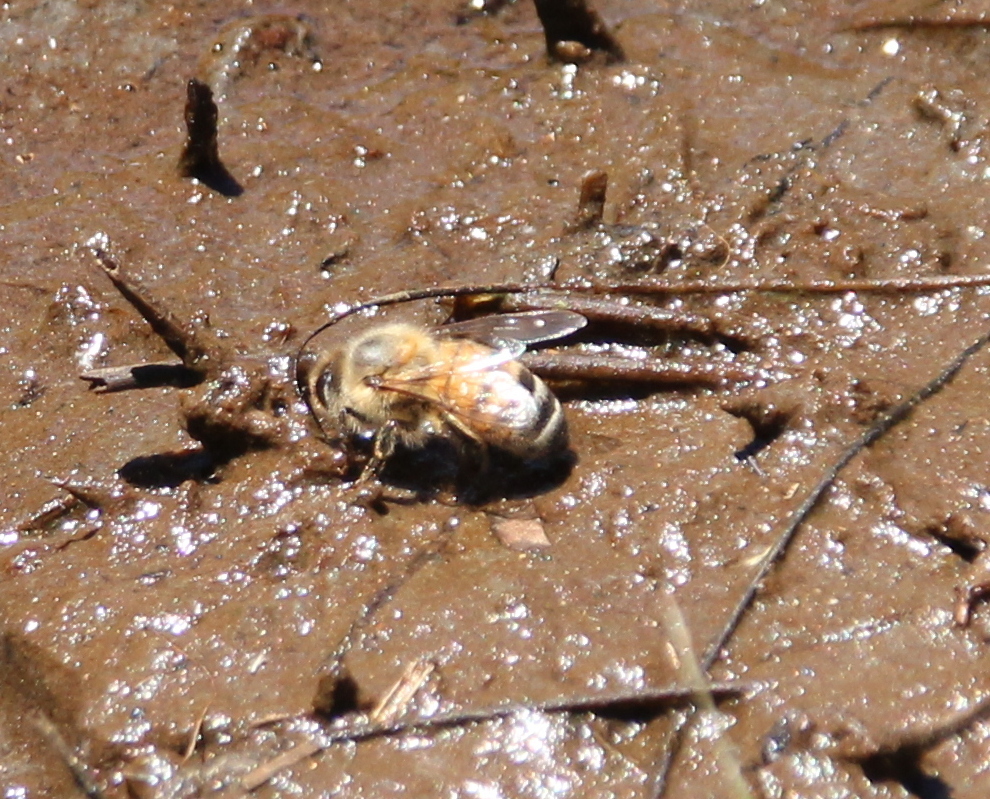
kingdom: Animalia
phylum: Arthropoda
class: Insecta
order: Hymenoptera
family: Apidae
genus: Apis
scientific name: Apis mellifera
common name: Honey bee
